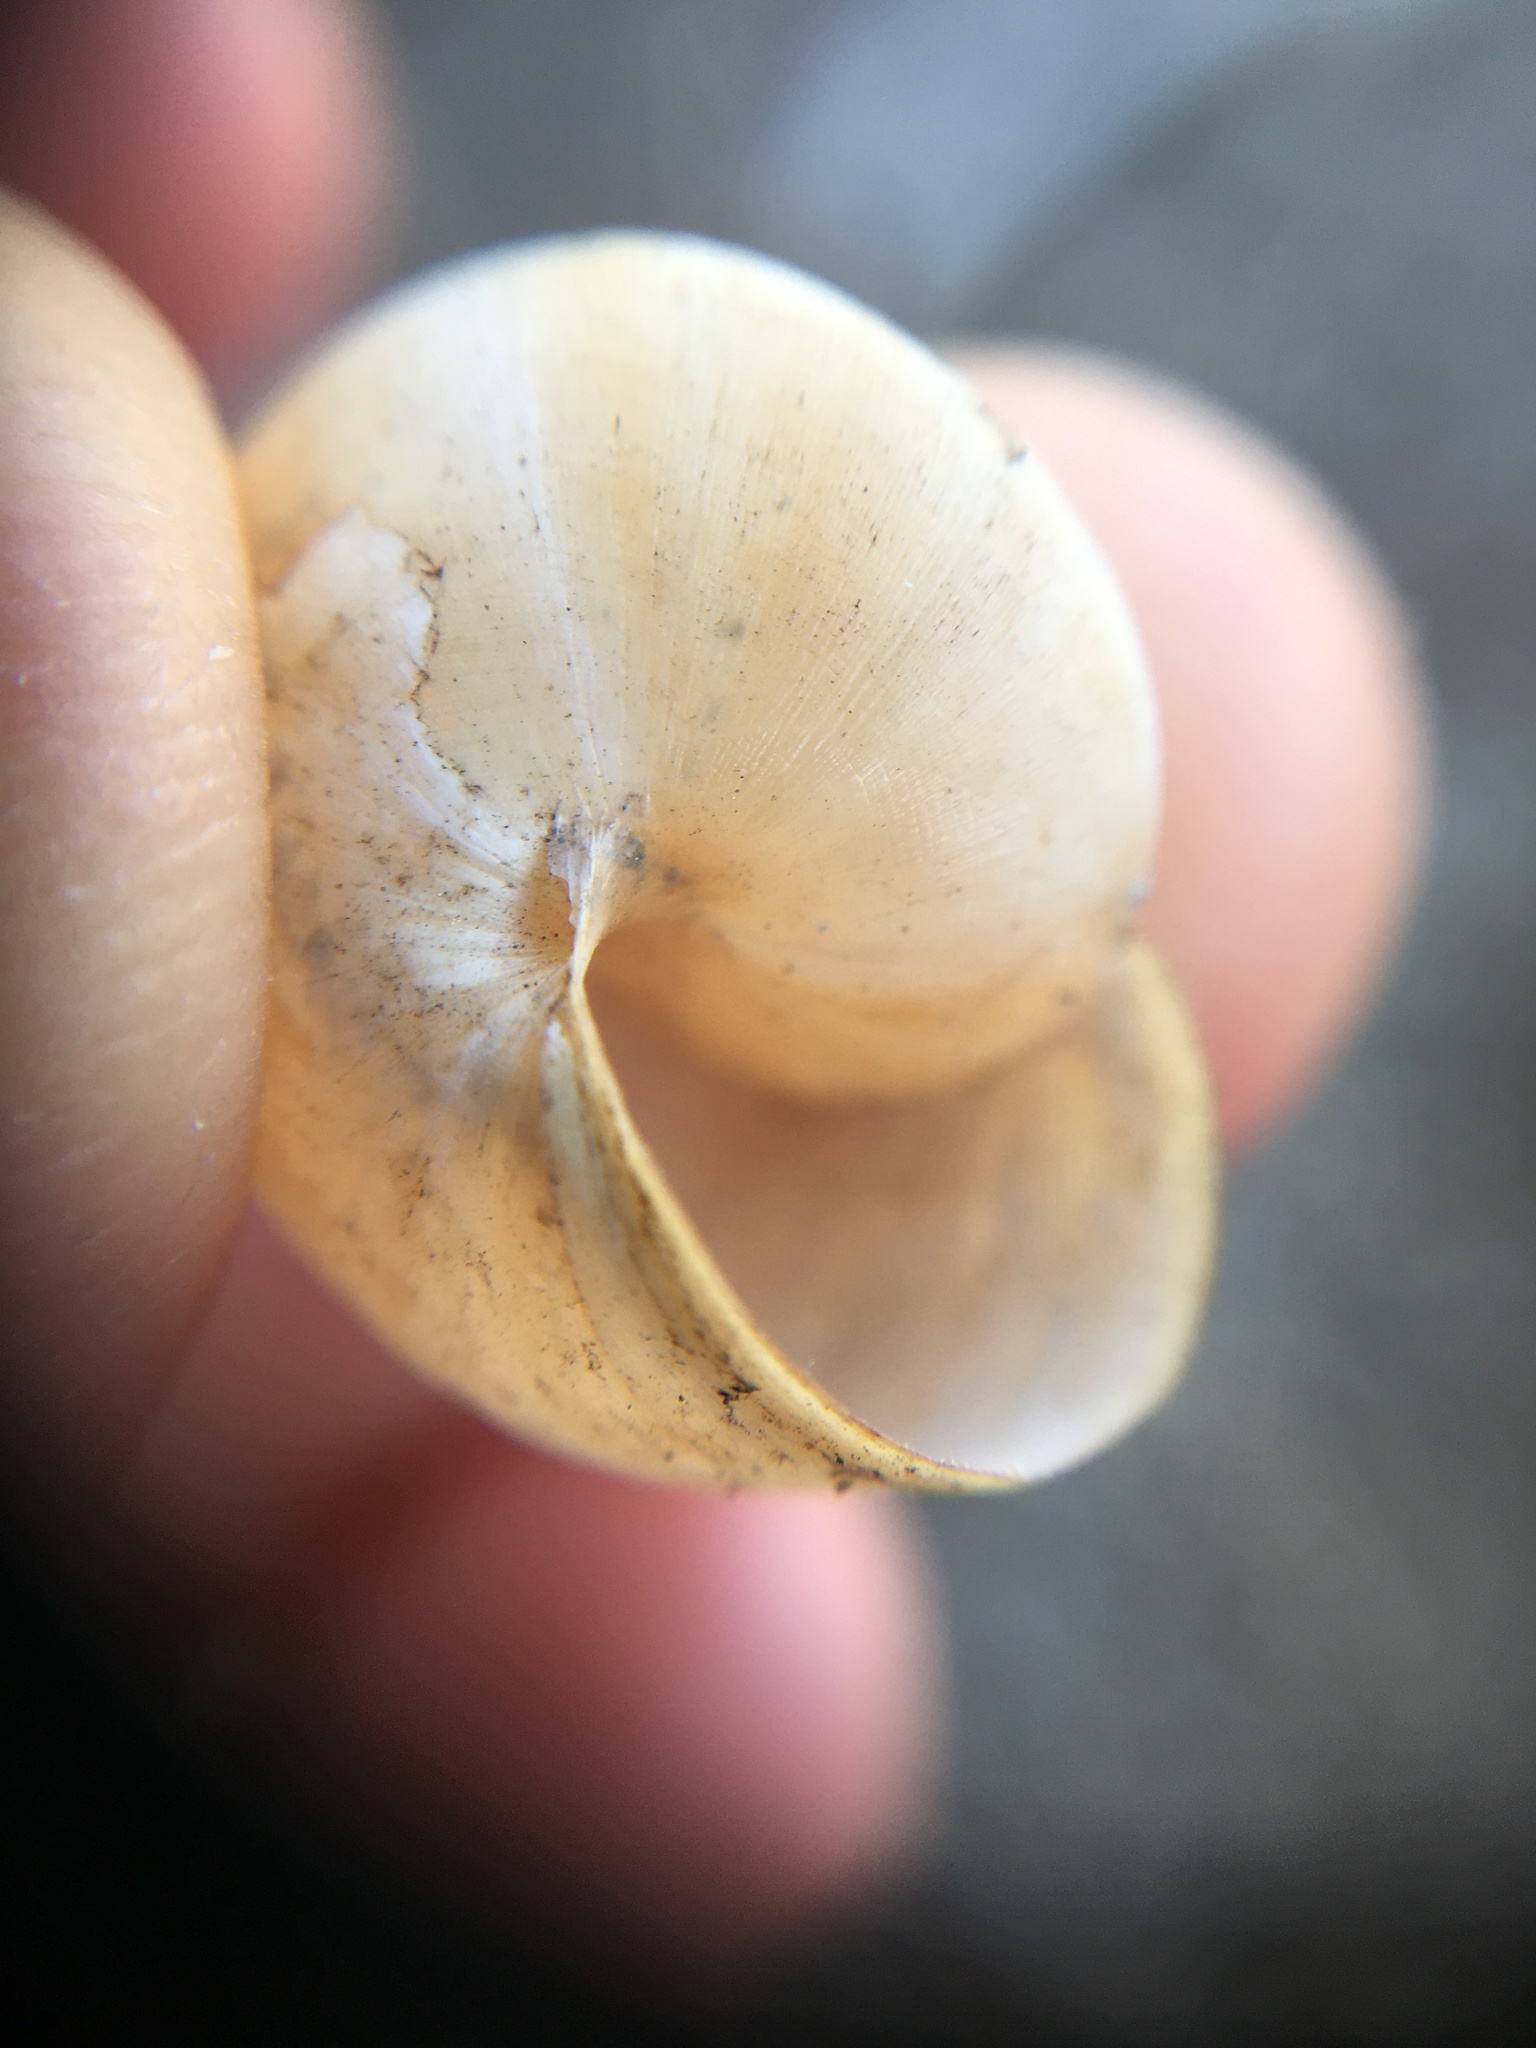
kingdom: Animalia
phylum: Mollusca
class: Gastropoda
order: Stylommatophora
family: Helicidae
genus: Theba
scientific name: Theba pisana
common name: White snail
